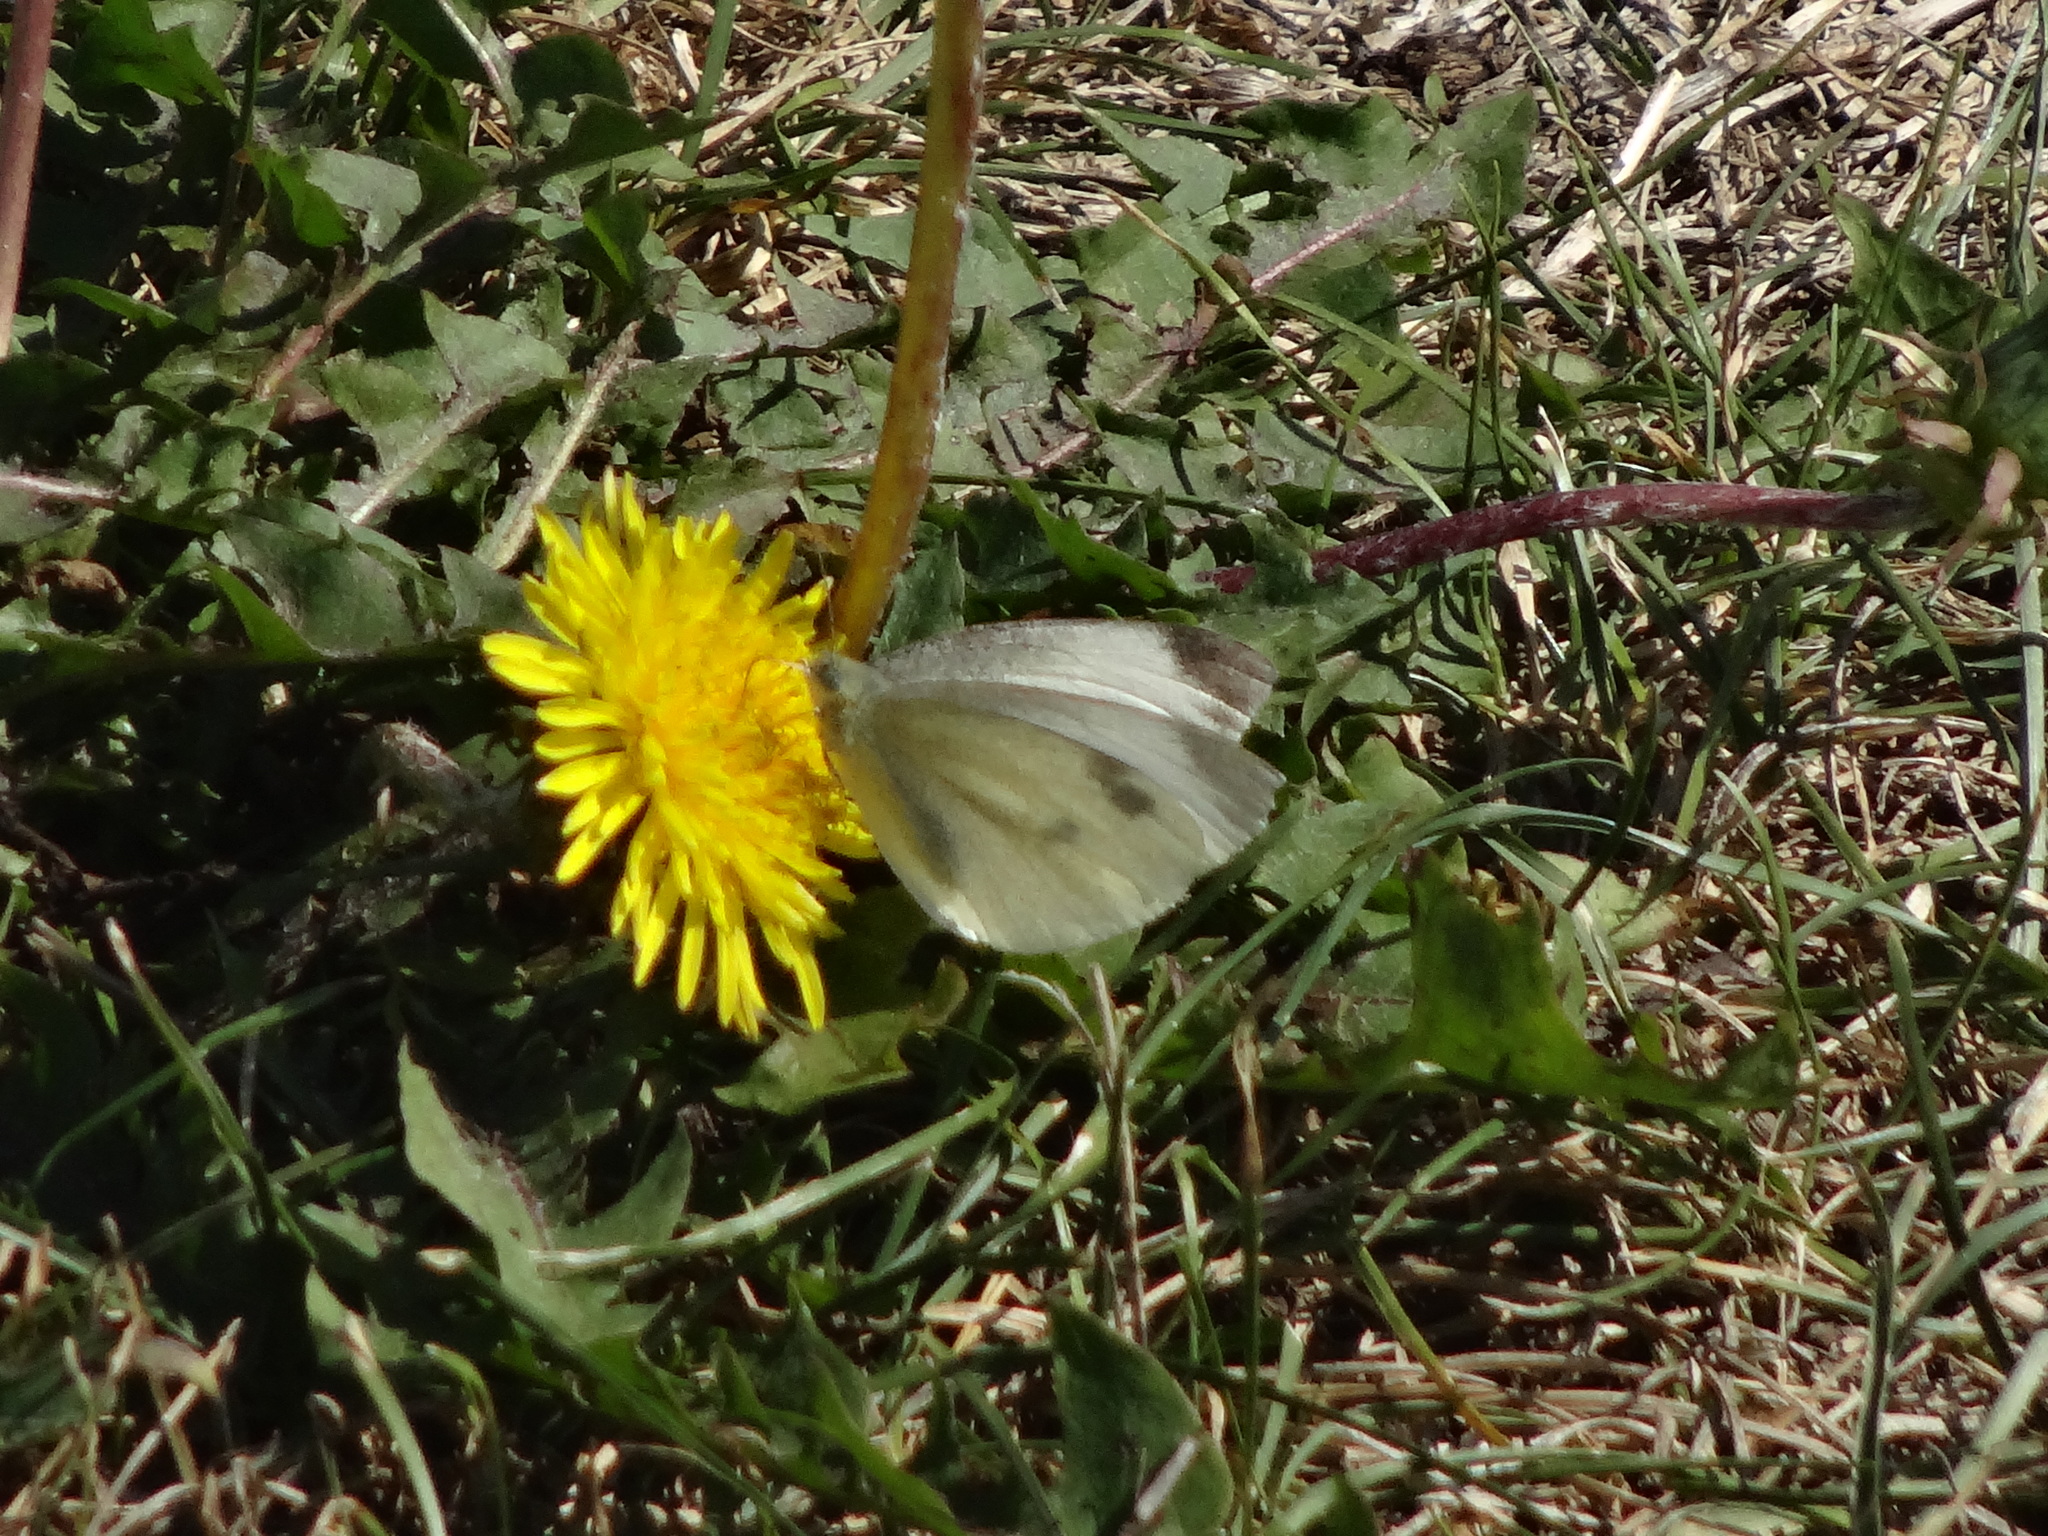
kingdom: Animalia
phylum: Arthropoda
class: Insecta
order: Lepidoptera
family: Pieridae
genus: Pieris
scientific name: Pieris rapae
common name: Small white
